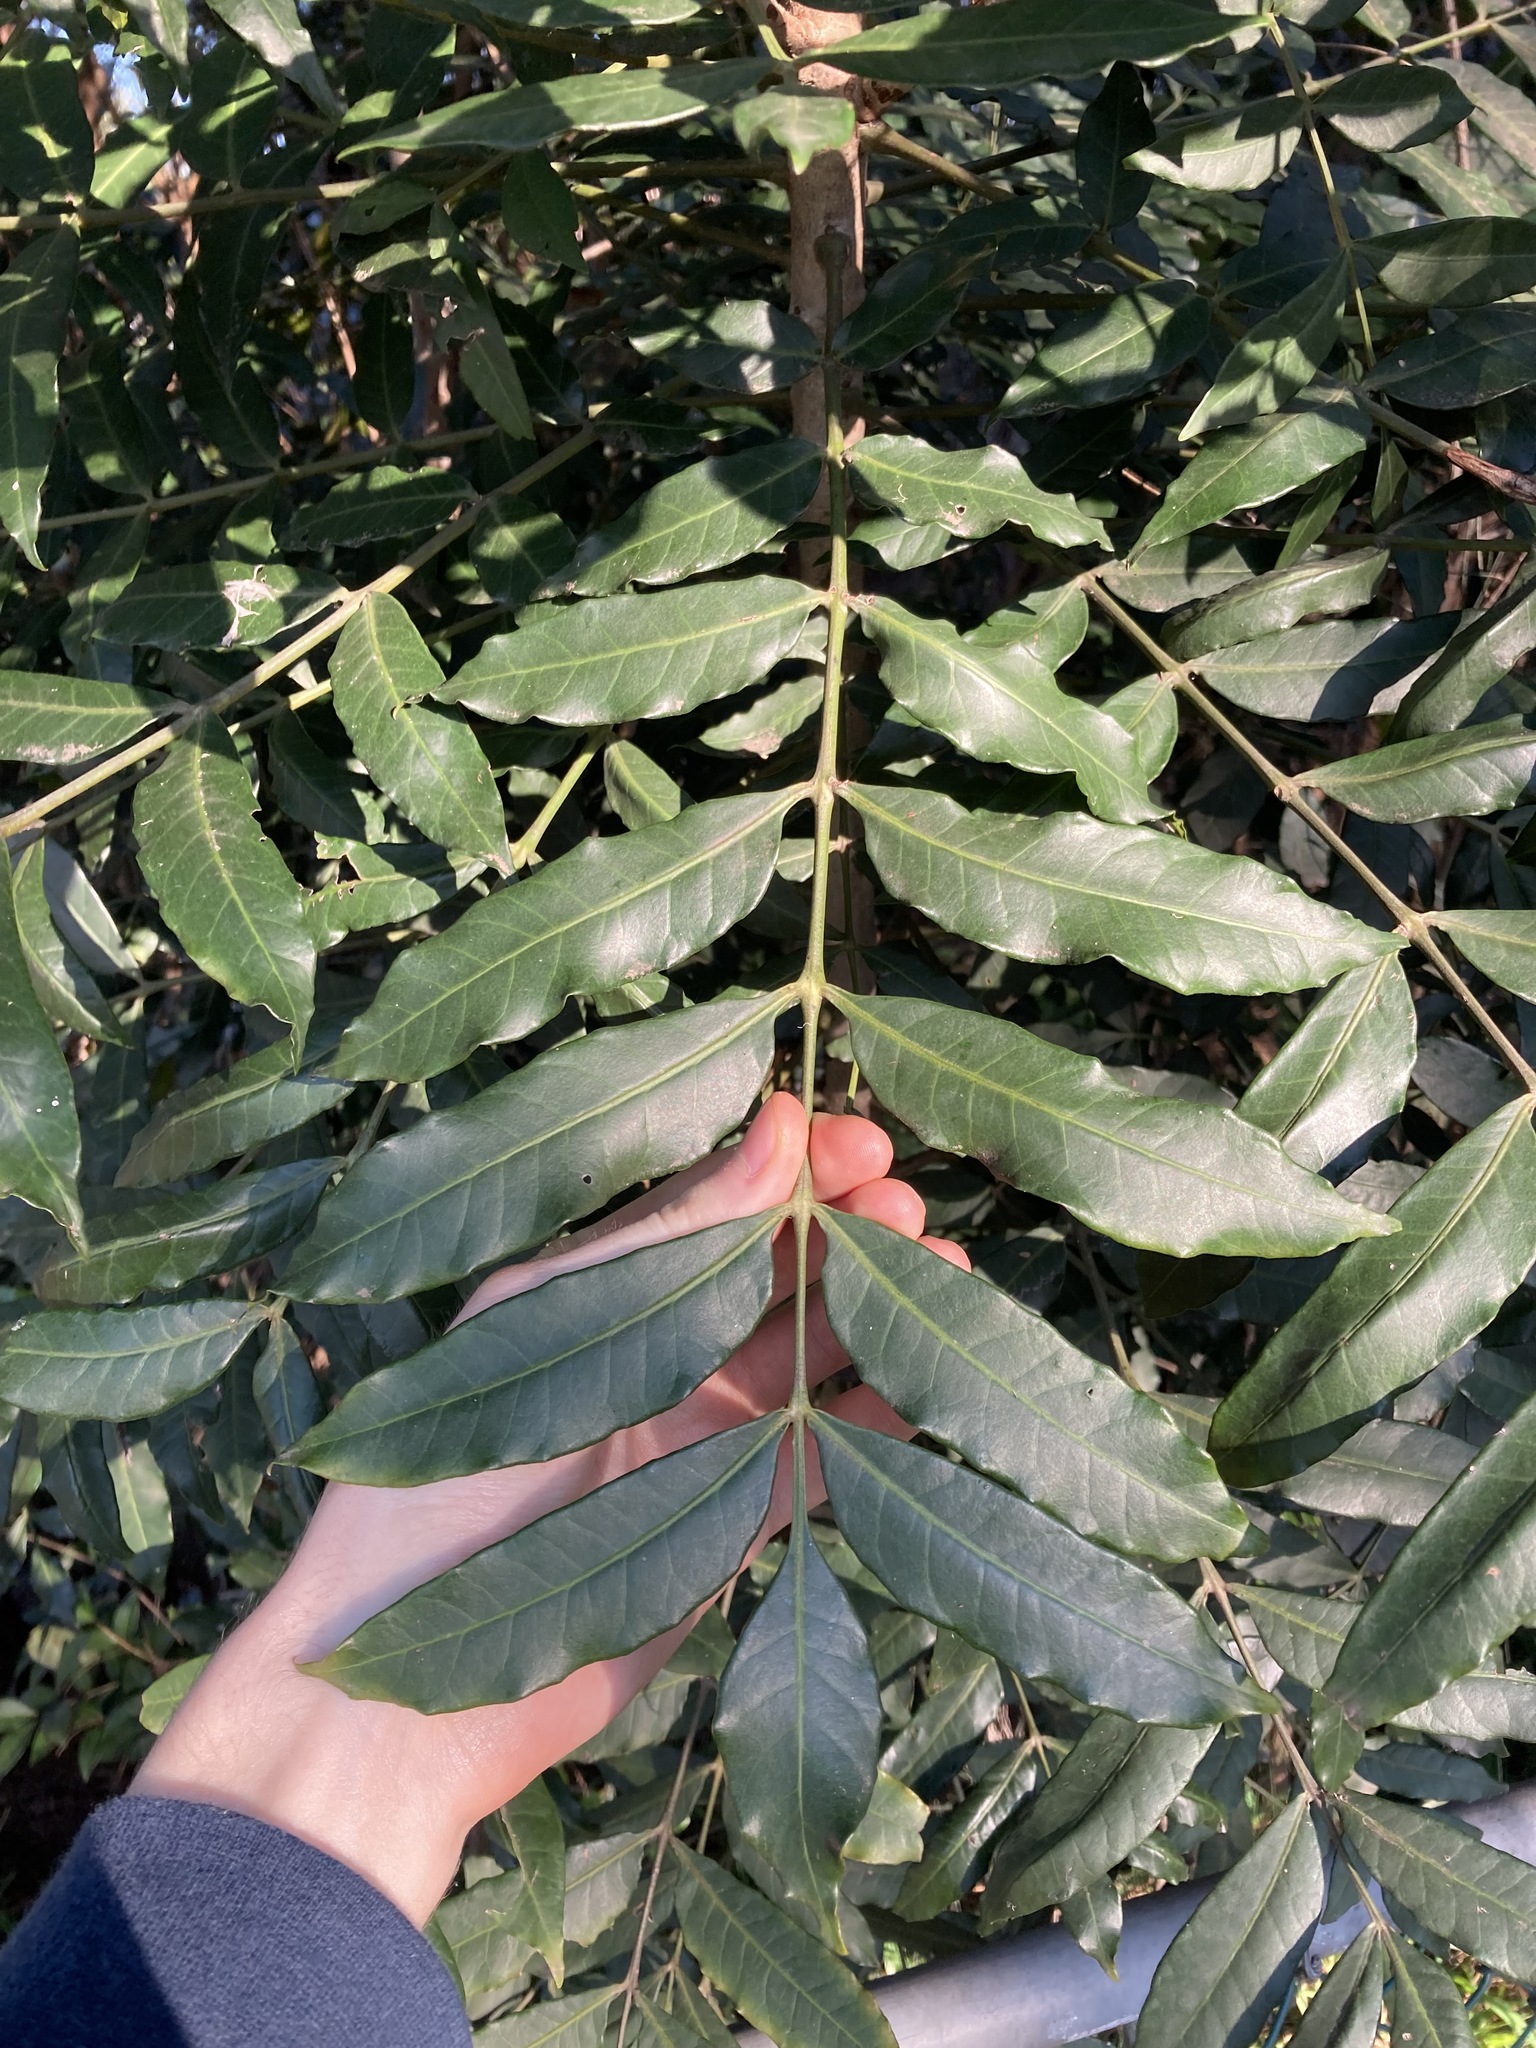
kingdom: Plantae
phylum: Tracheophyta
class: Magnoliopsida
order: Sapindales
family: Anacardiaceae
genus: Harpephyllum
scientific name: Harpephyllum caffrum
